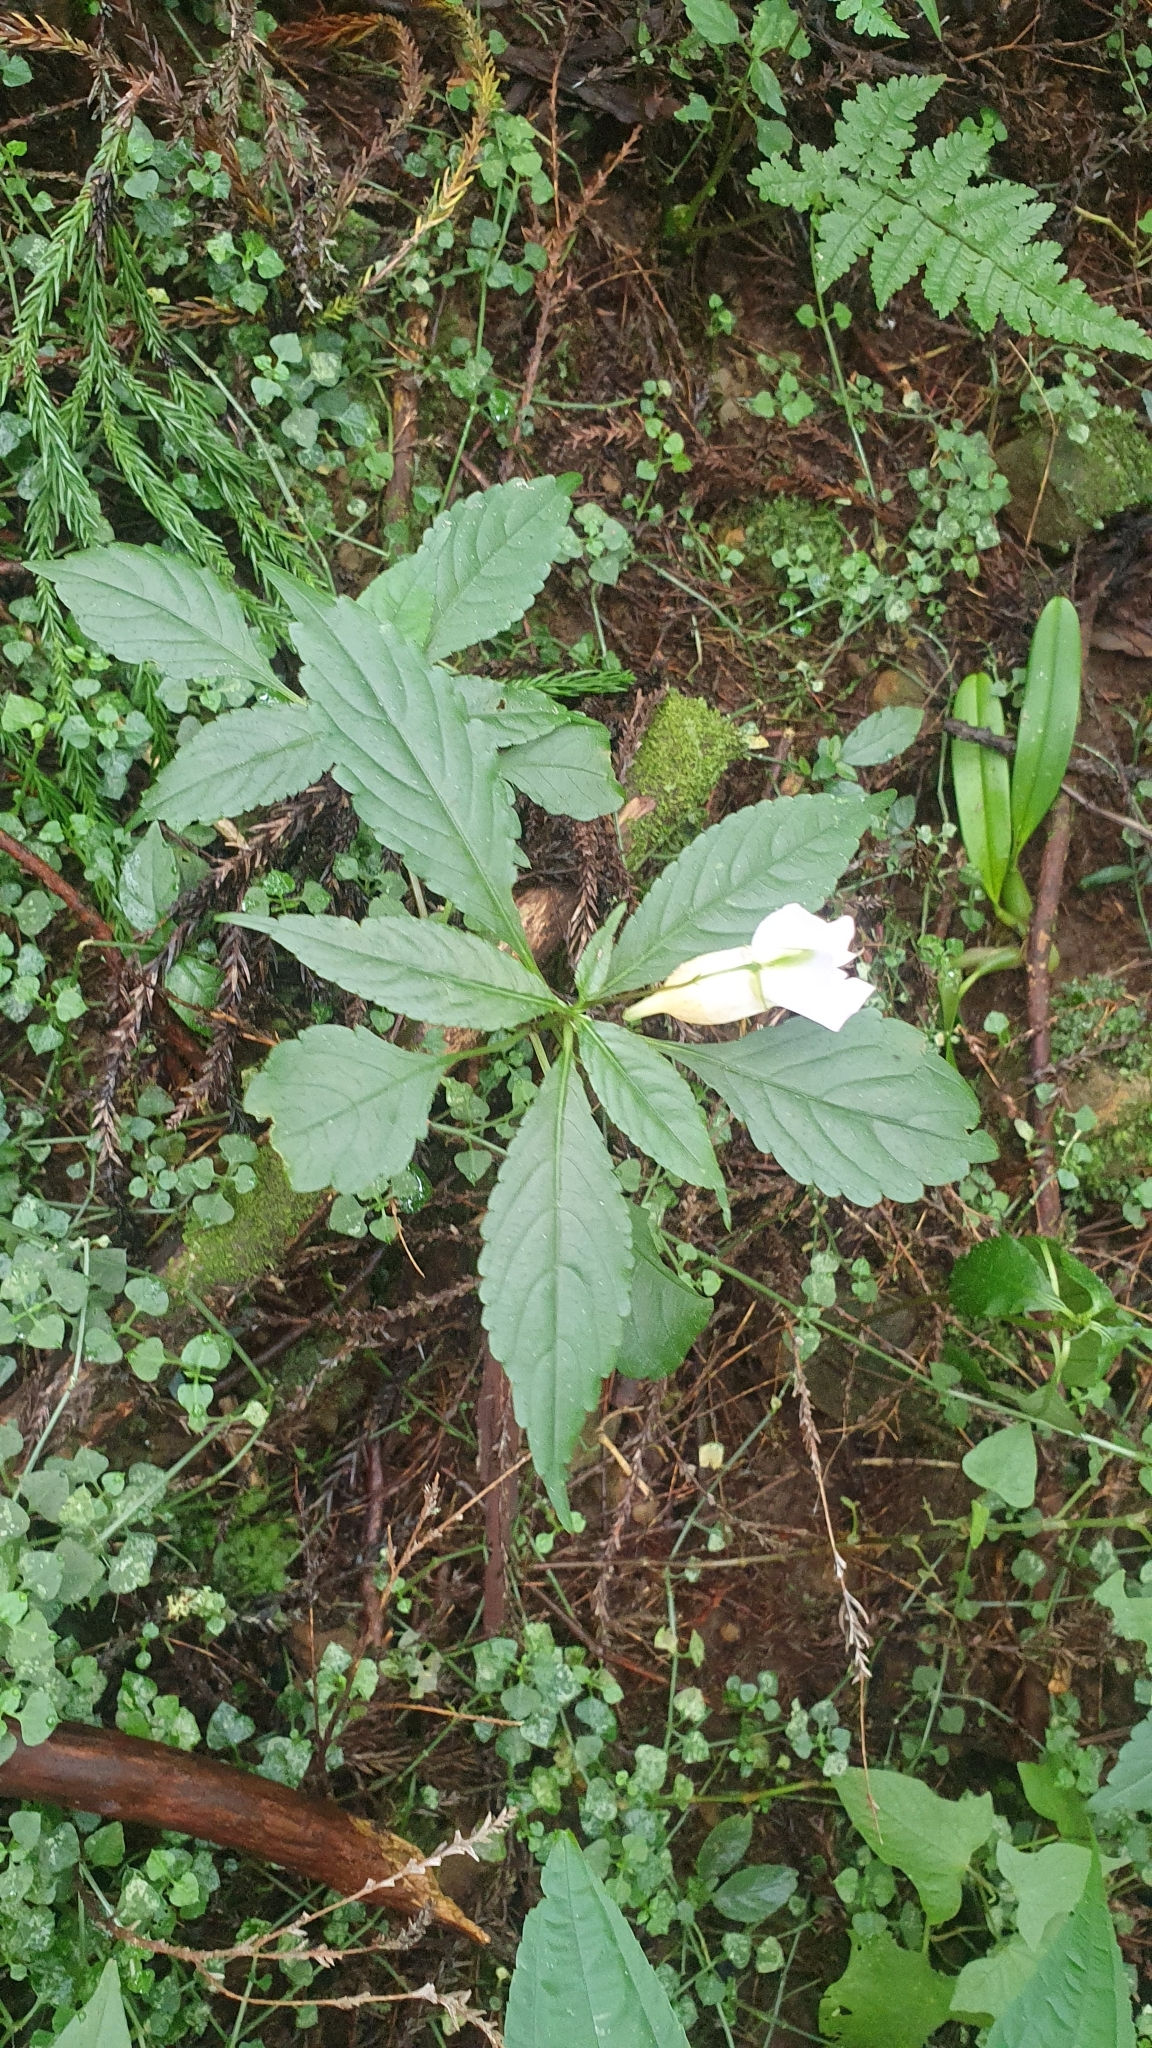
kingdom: Plantae
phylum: Tracheophyta
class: Magnoliopsida
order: Ericales
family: Balsaminaceae
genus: Impatiens
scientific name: Impatiens uniflora
